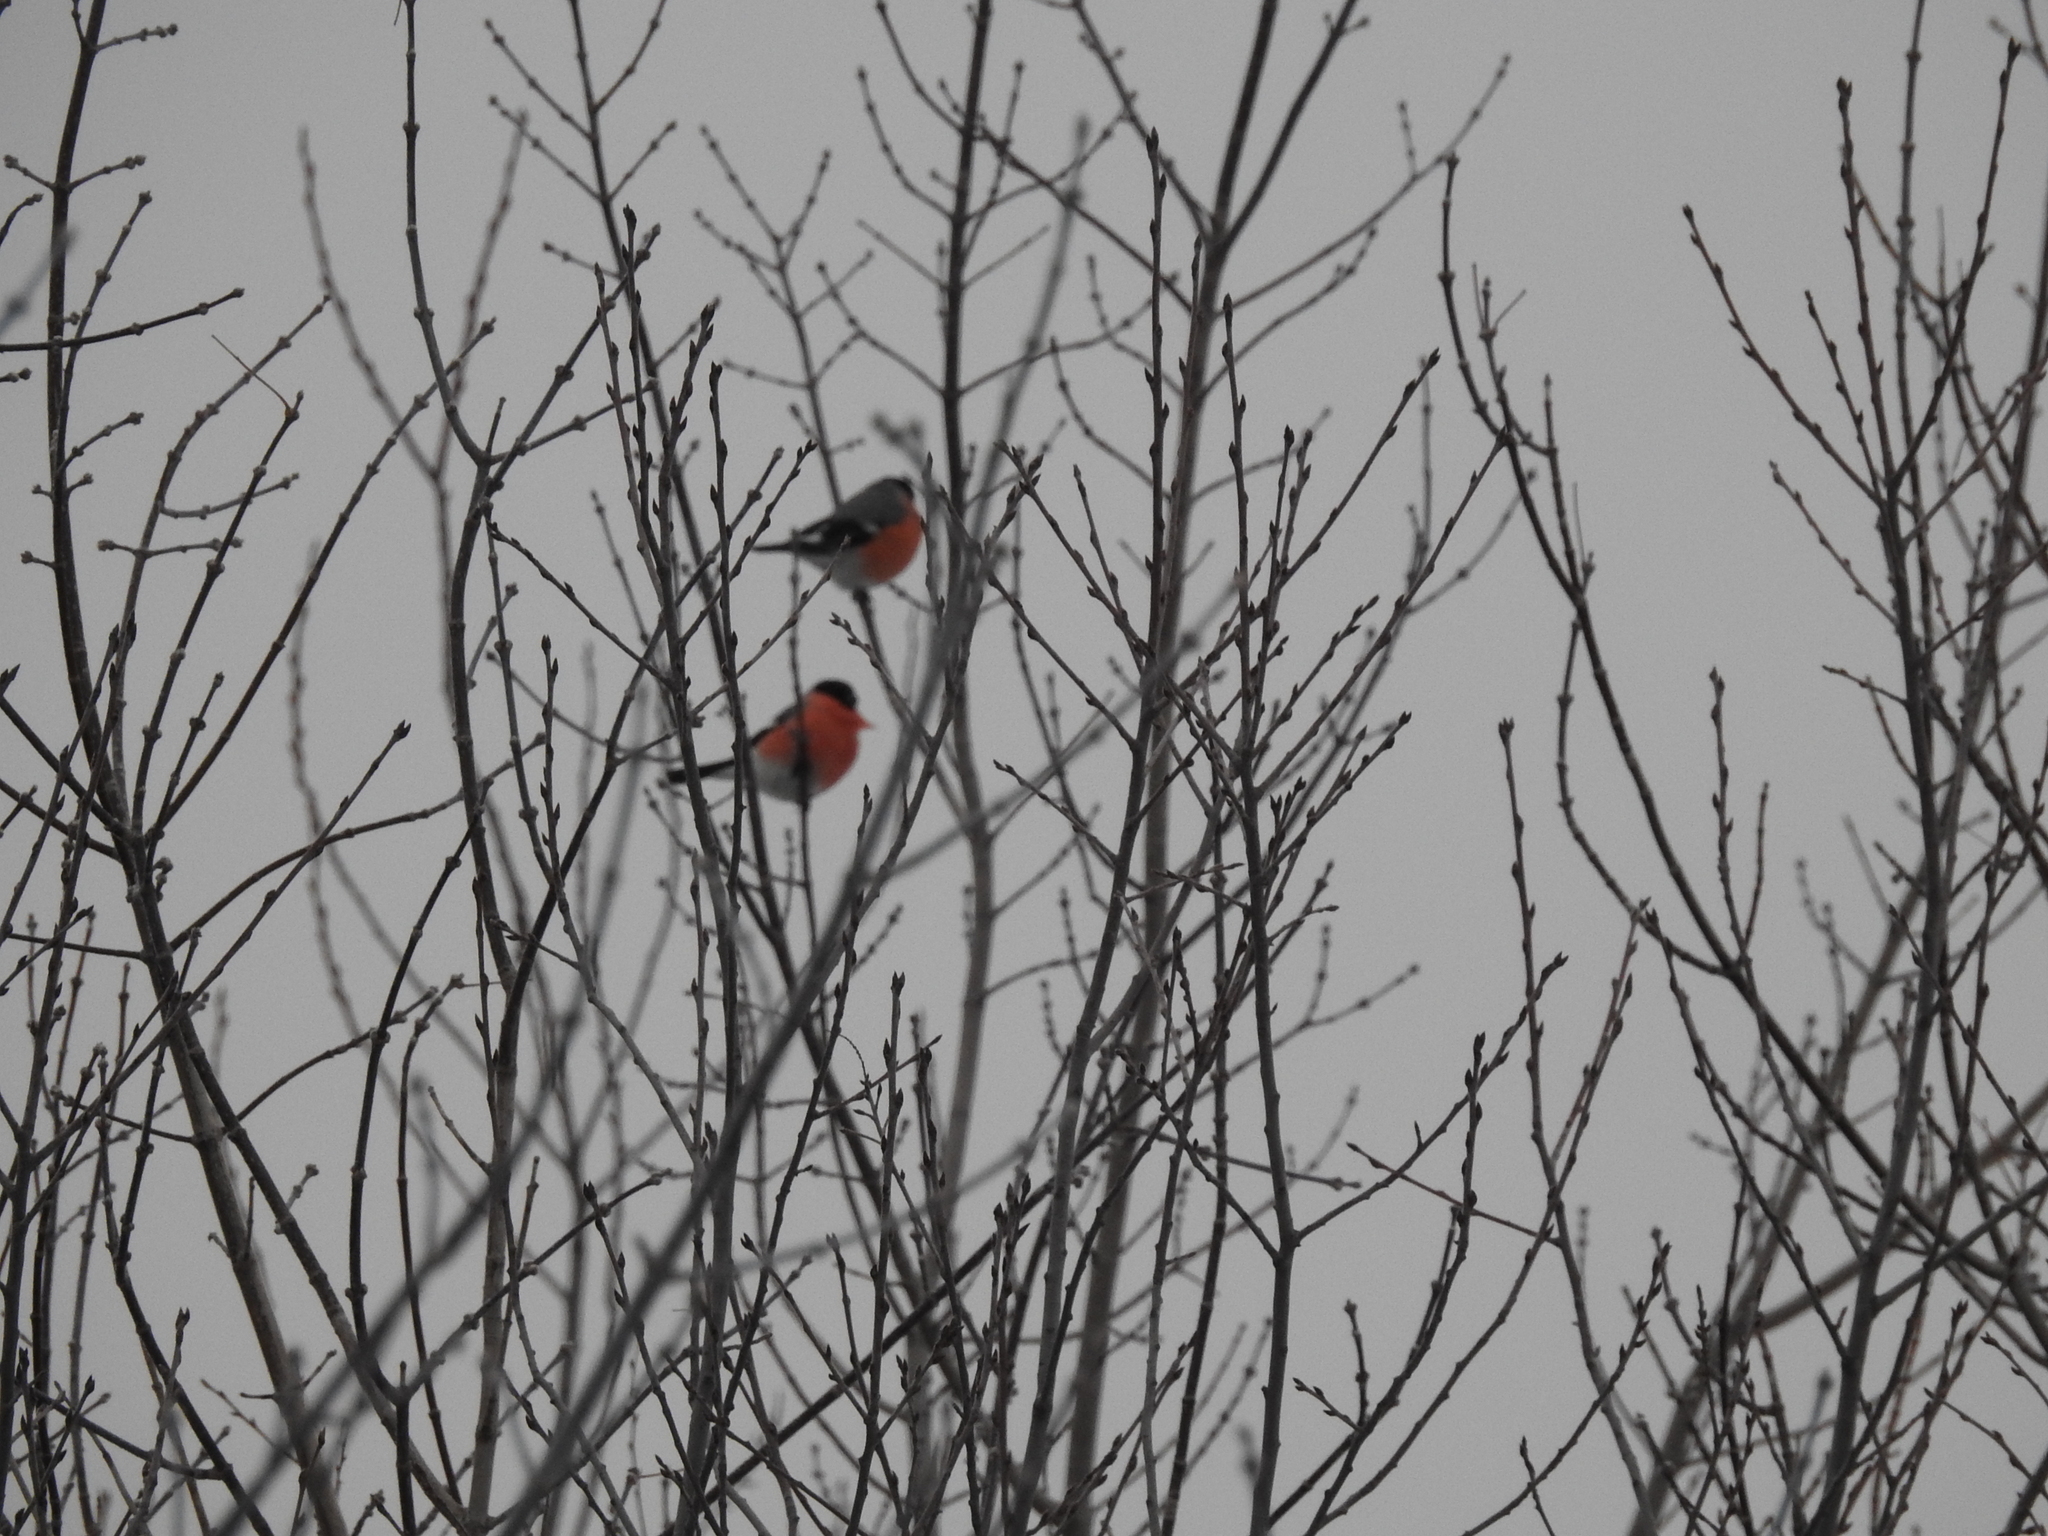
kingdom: Animalia
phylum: Chordata
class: Aves
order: Passeriformes
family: Fringillidae
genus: Pyrrhula
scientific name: Pyrrhula pyrrhula
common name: Eurasian bullfinch
